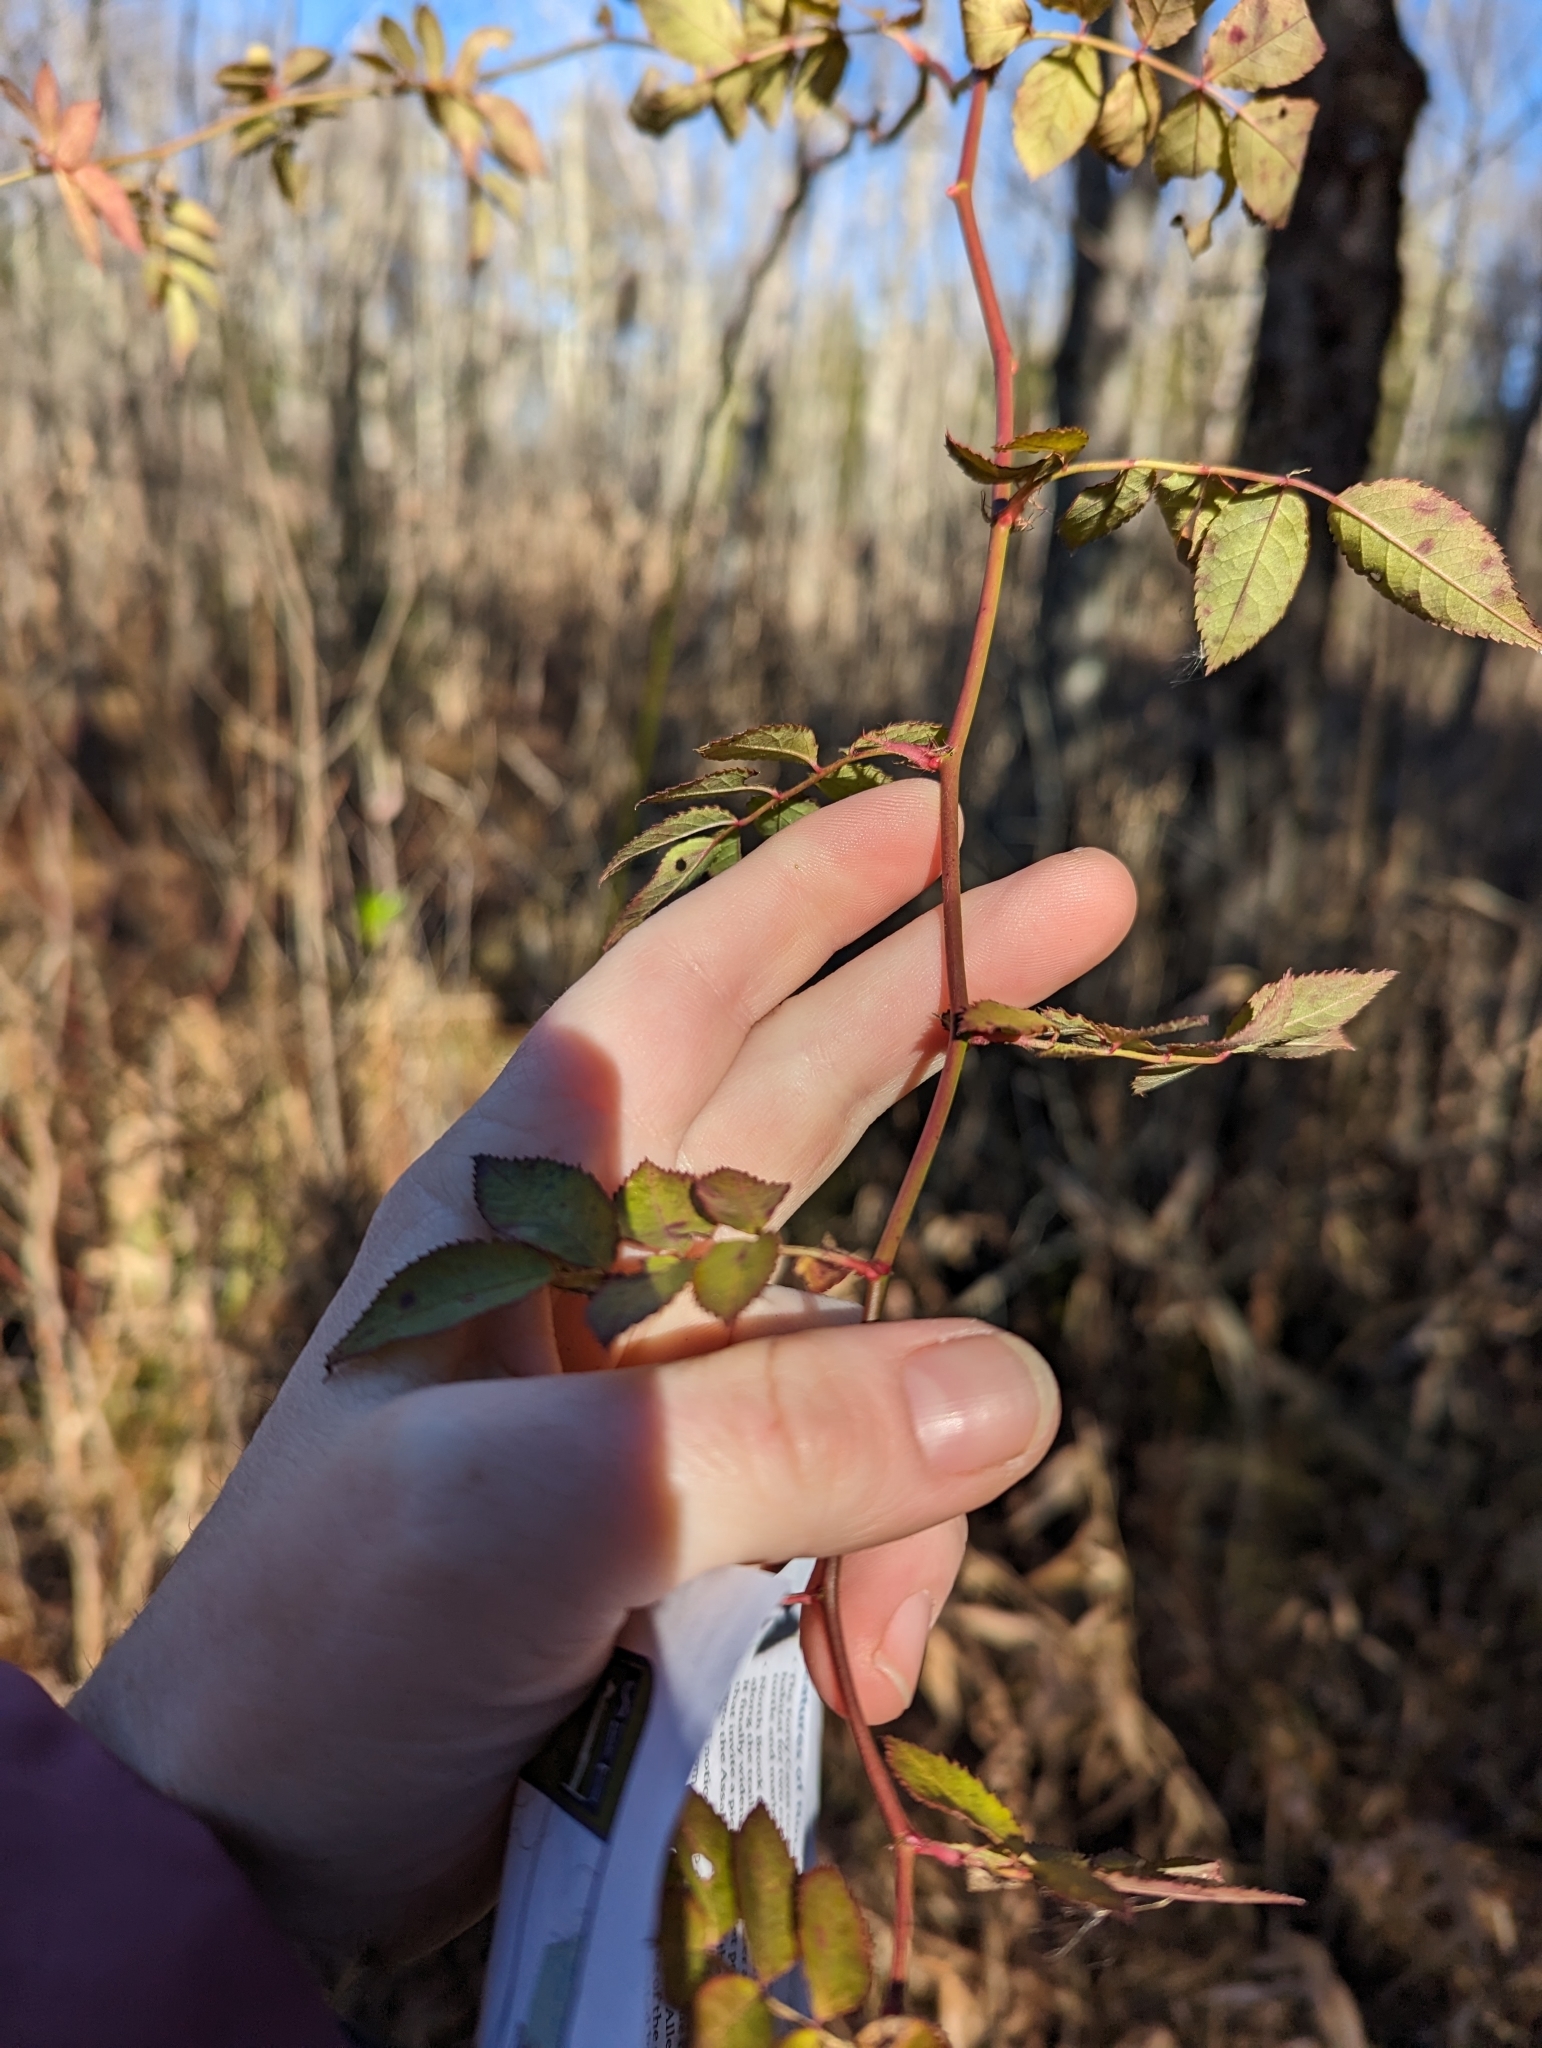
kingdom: Plantae
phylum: Tracheophyta
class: Magnoliopsida
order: Rosales
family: Rosaceae
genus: Rosa
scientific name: Rosa multiflora
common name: Multiflora rose
